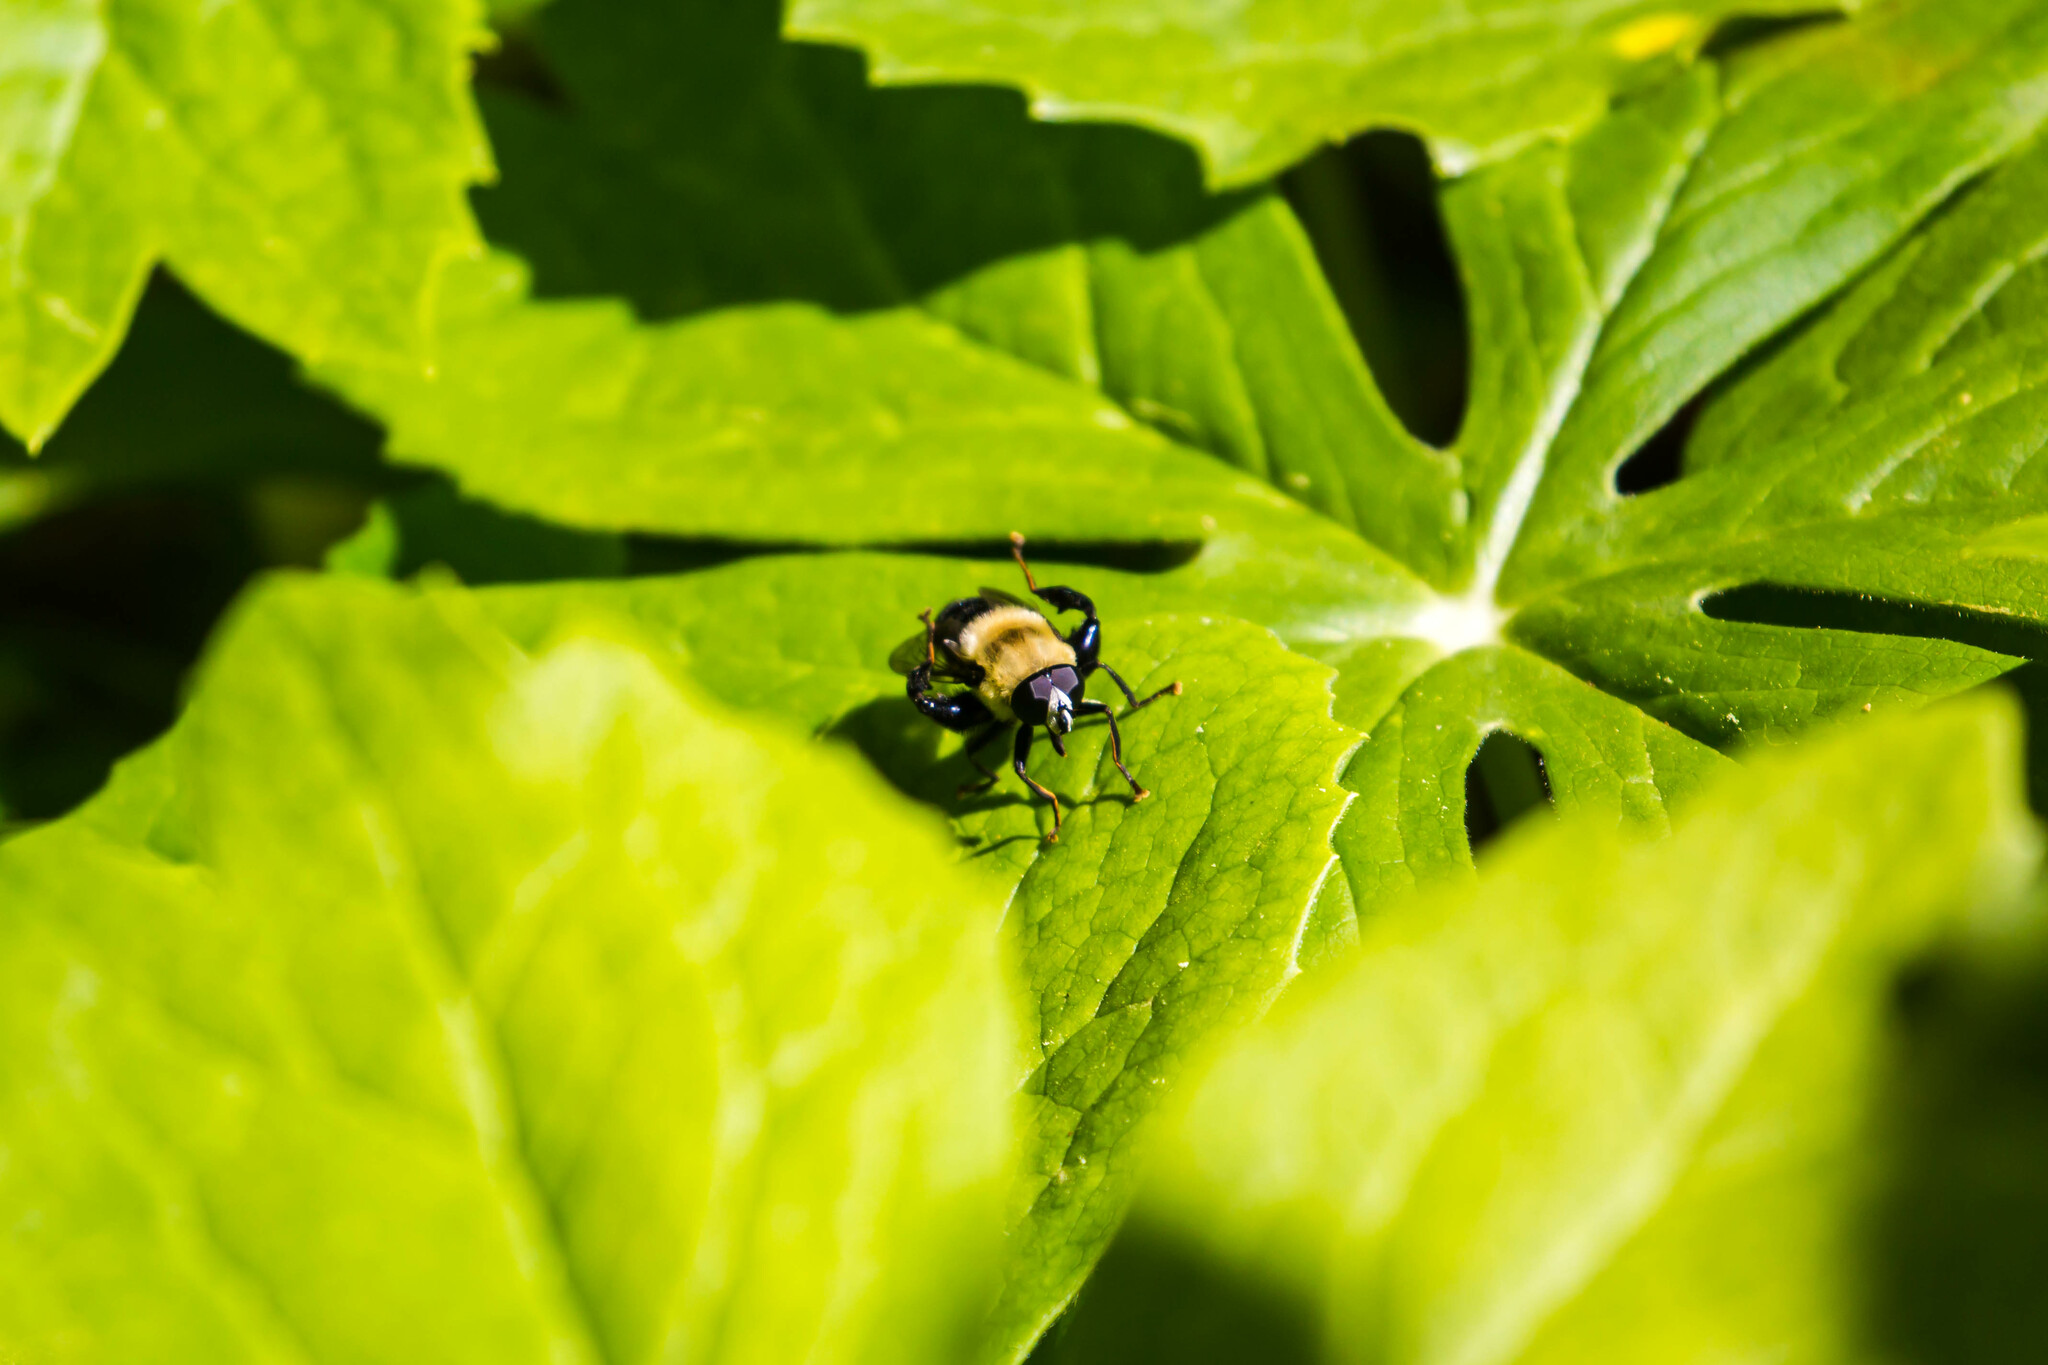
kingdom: Animalia
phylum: Arthropoda
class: Insecta
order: Diptera
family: Syrphidae
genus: Imatisma
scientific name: Imatisma bautias
